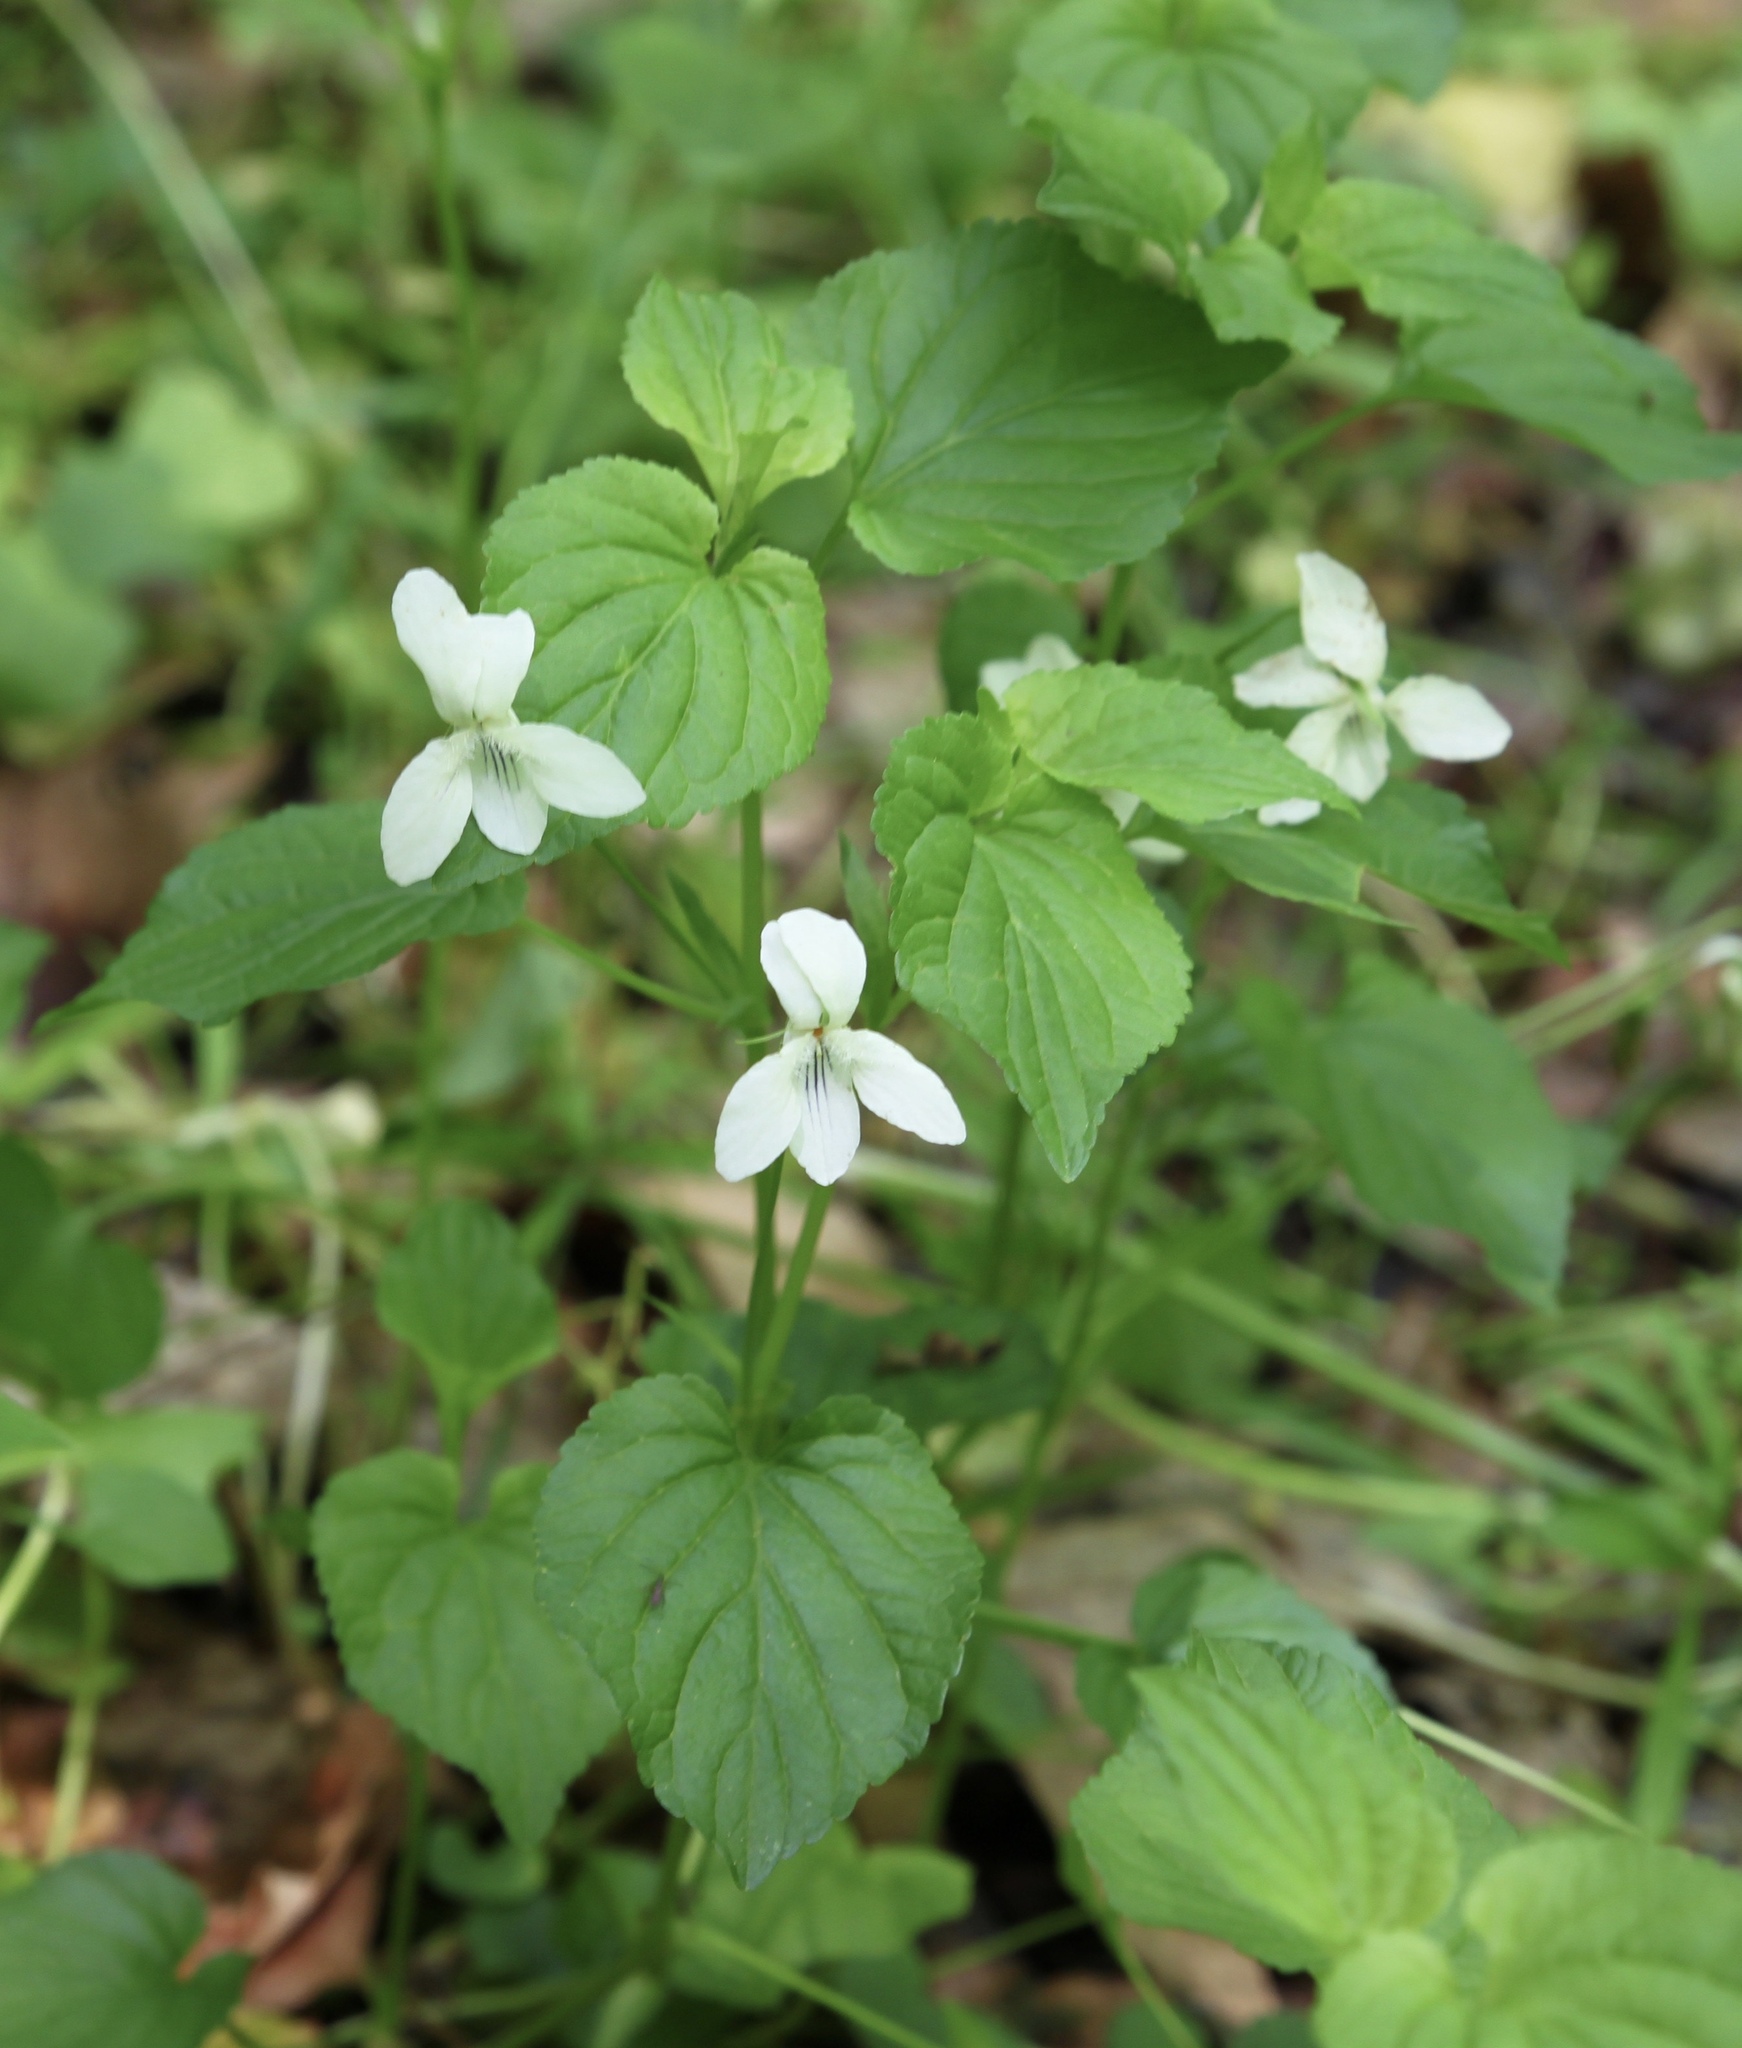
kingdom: Plantae
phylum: Tracheophyta
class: Magnoliopsida
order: Malpighiales
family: Violaceae
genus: Viola
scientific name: Viola striata
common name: Cream violet
